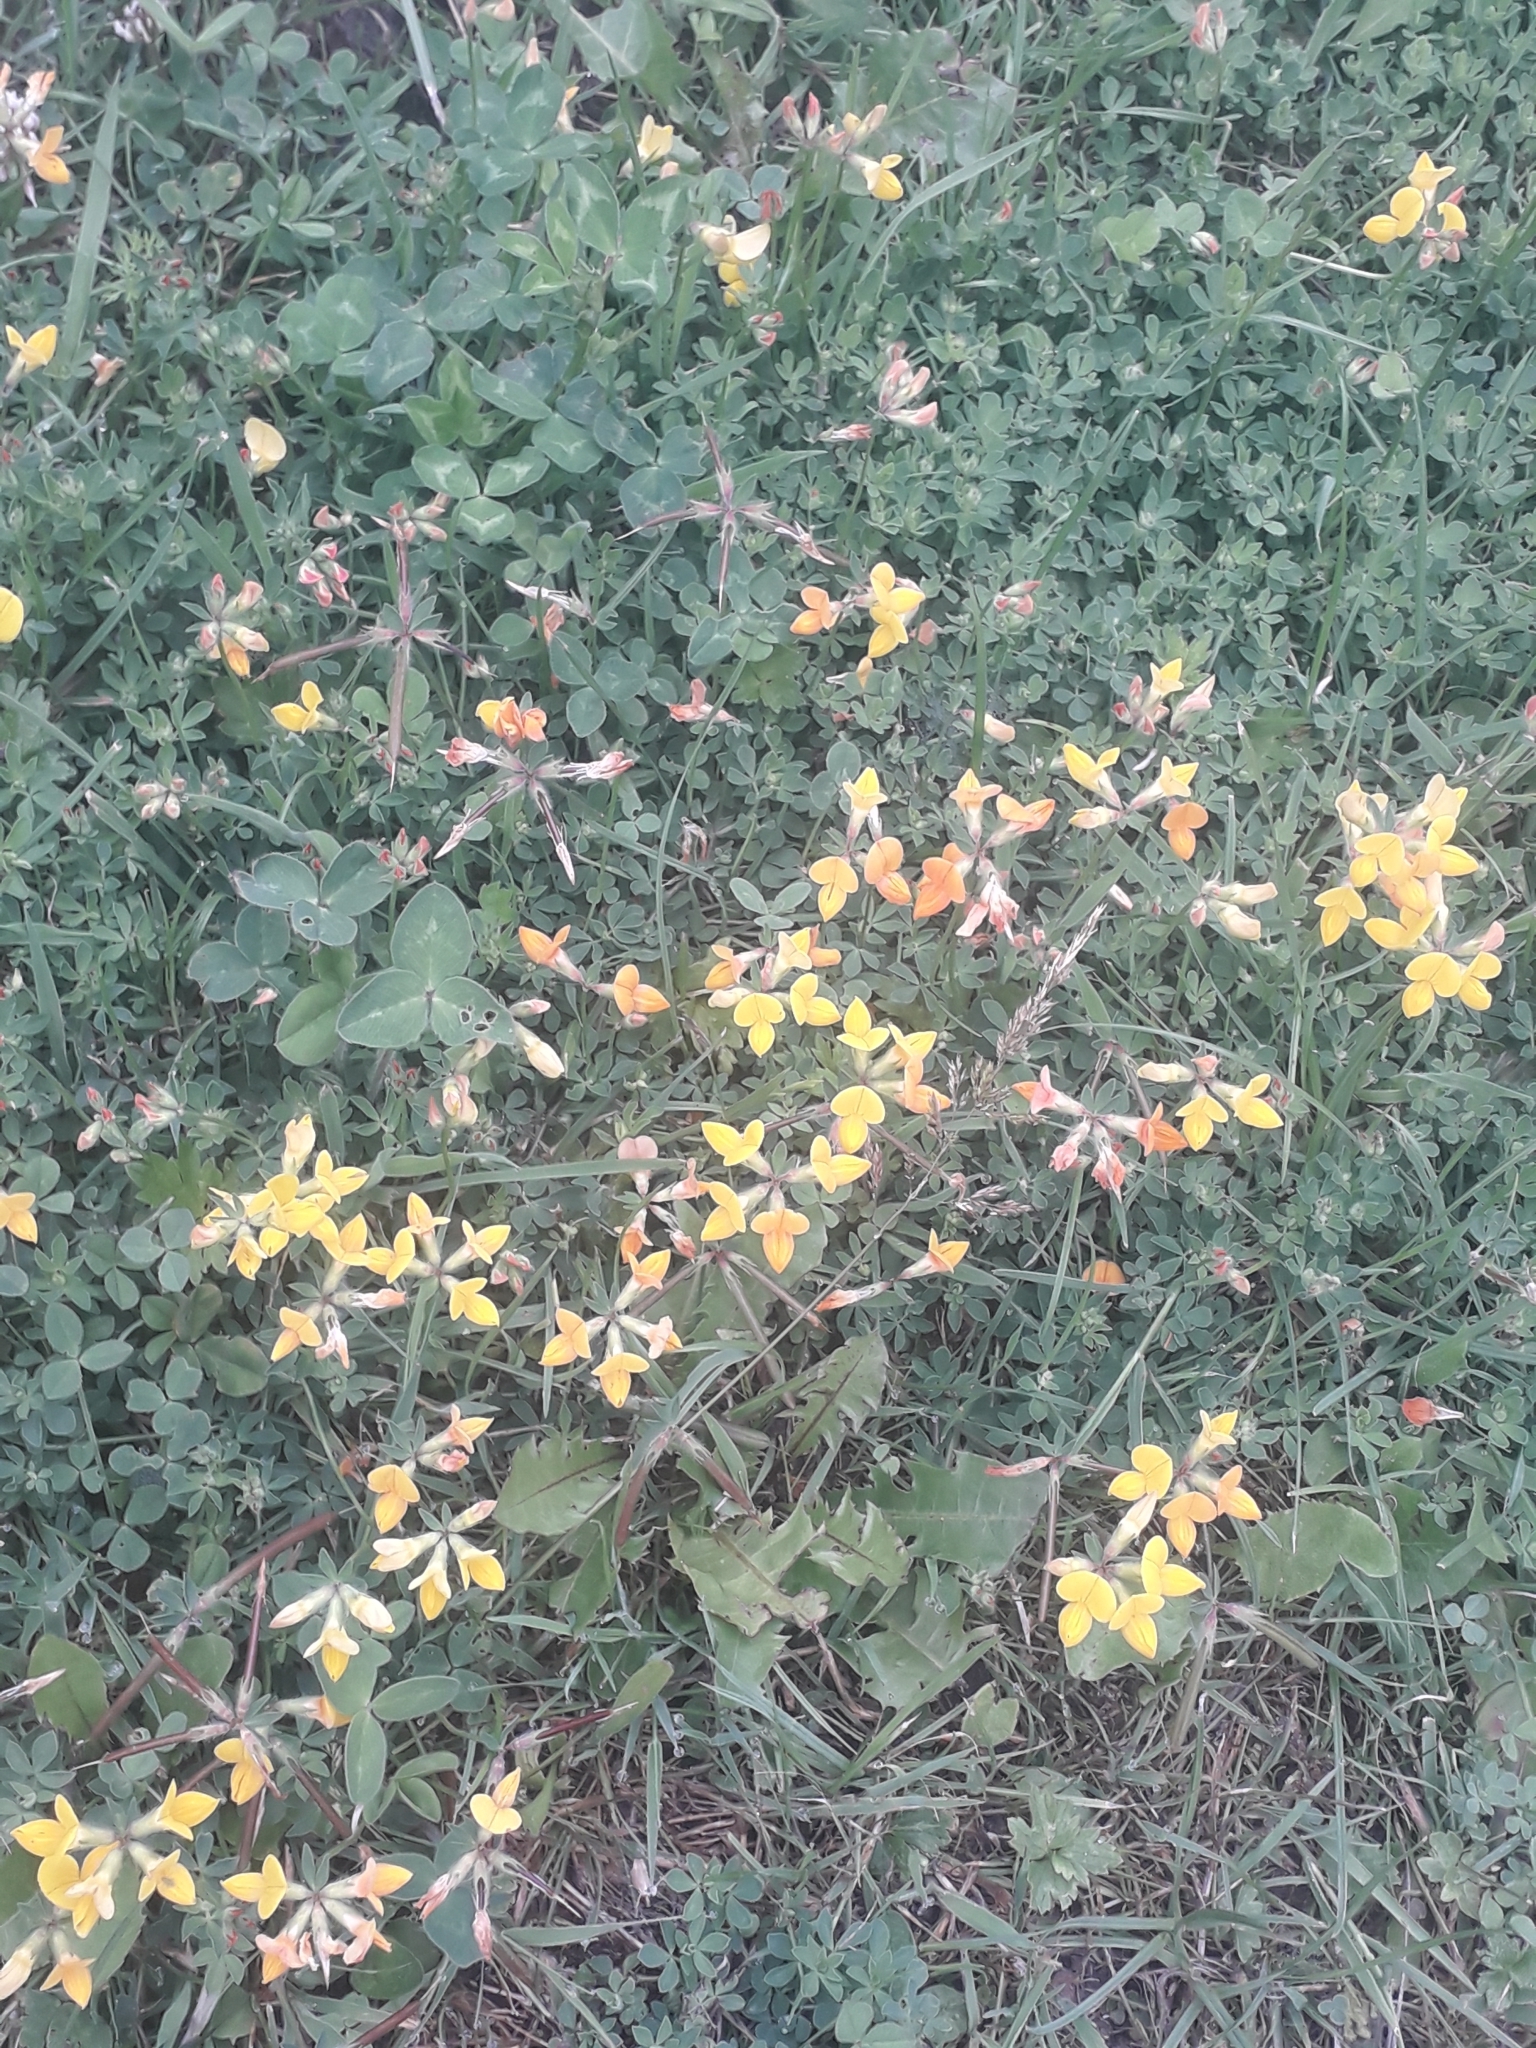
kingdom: Plantae
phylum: Tracheophyta
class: Magnoliopsida
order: Fabales
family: Fabaceae
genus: Lotus
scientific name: Lotus corniculatus
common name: Common bird's-foot-trefoil
